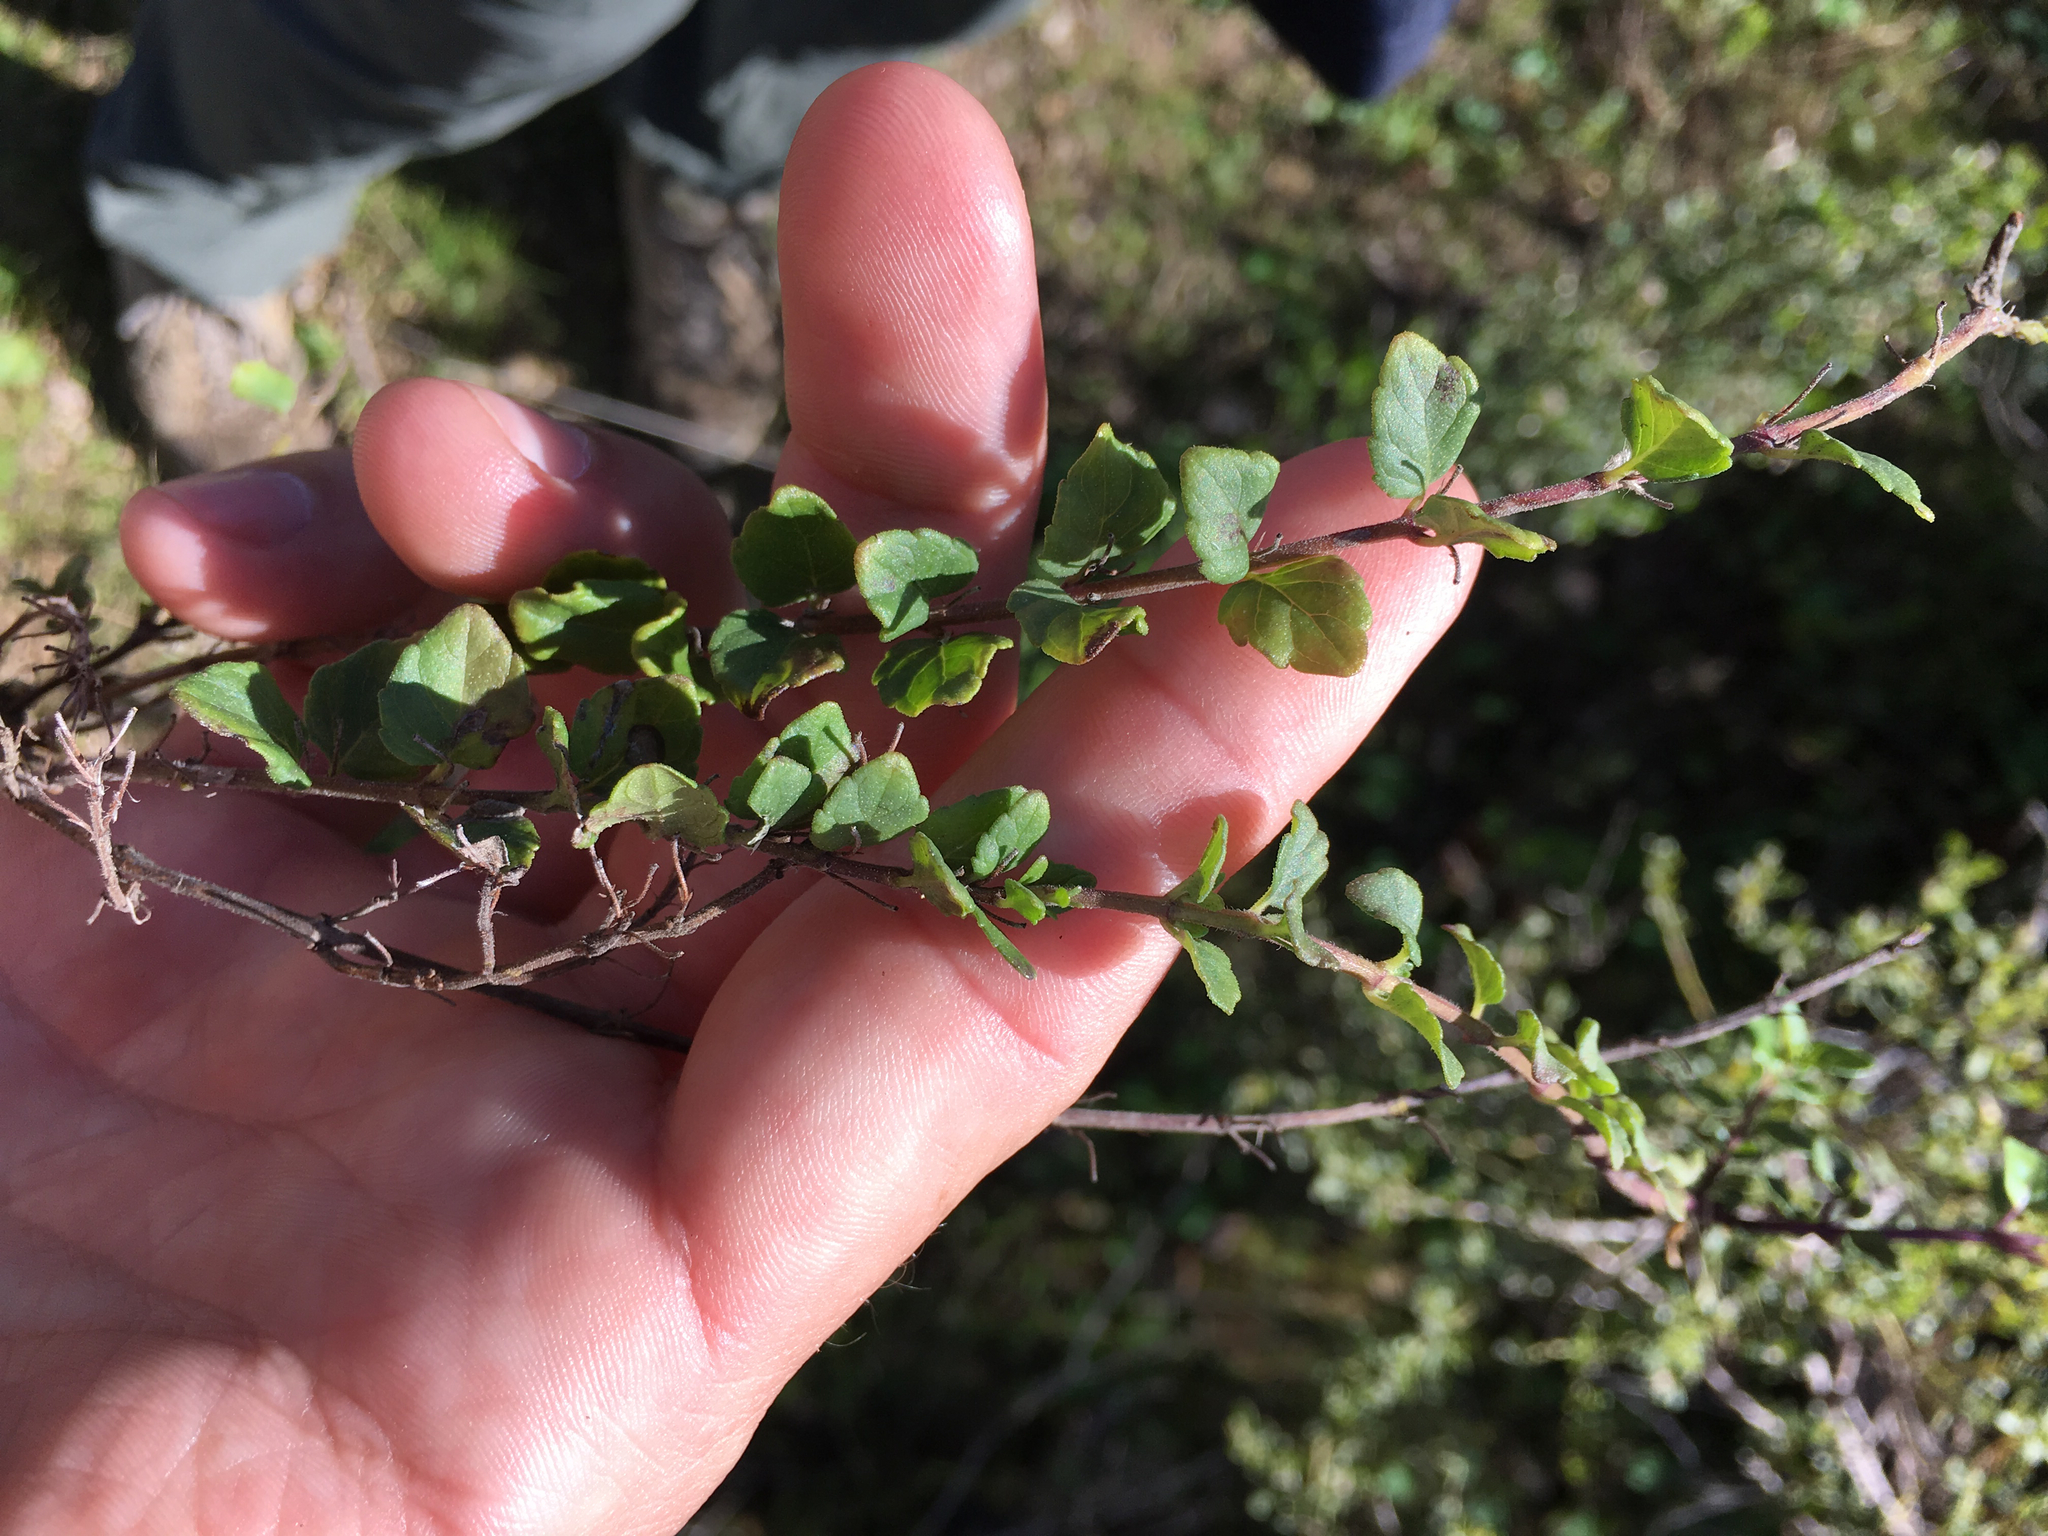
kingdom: Plantae
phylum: Tracheophyta
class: Magnoliopsida
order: Lamiales
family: Lamiaceae
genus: Micromeria
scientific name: Micromeria douglasii
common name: Yerba buena
